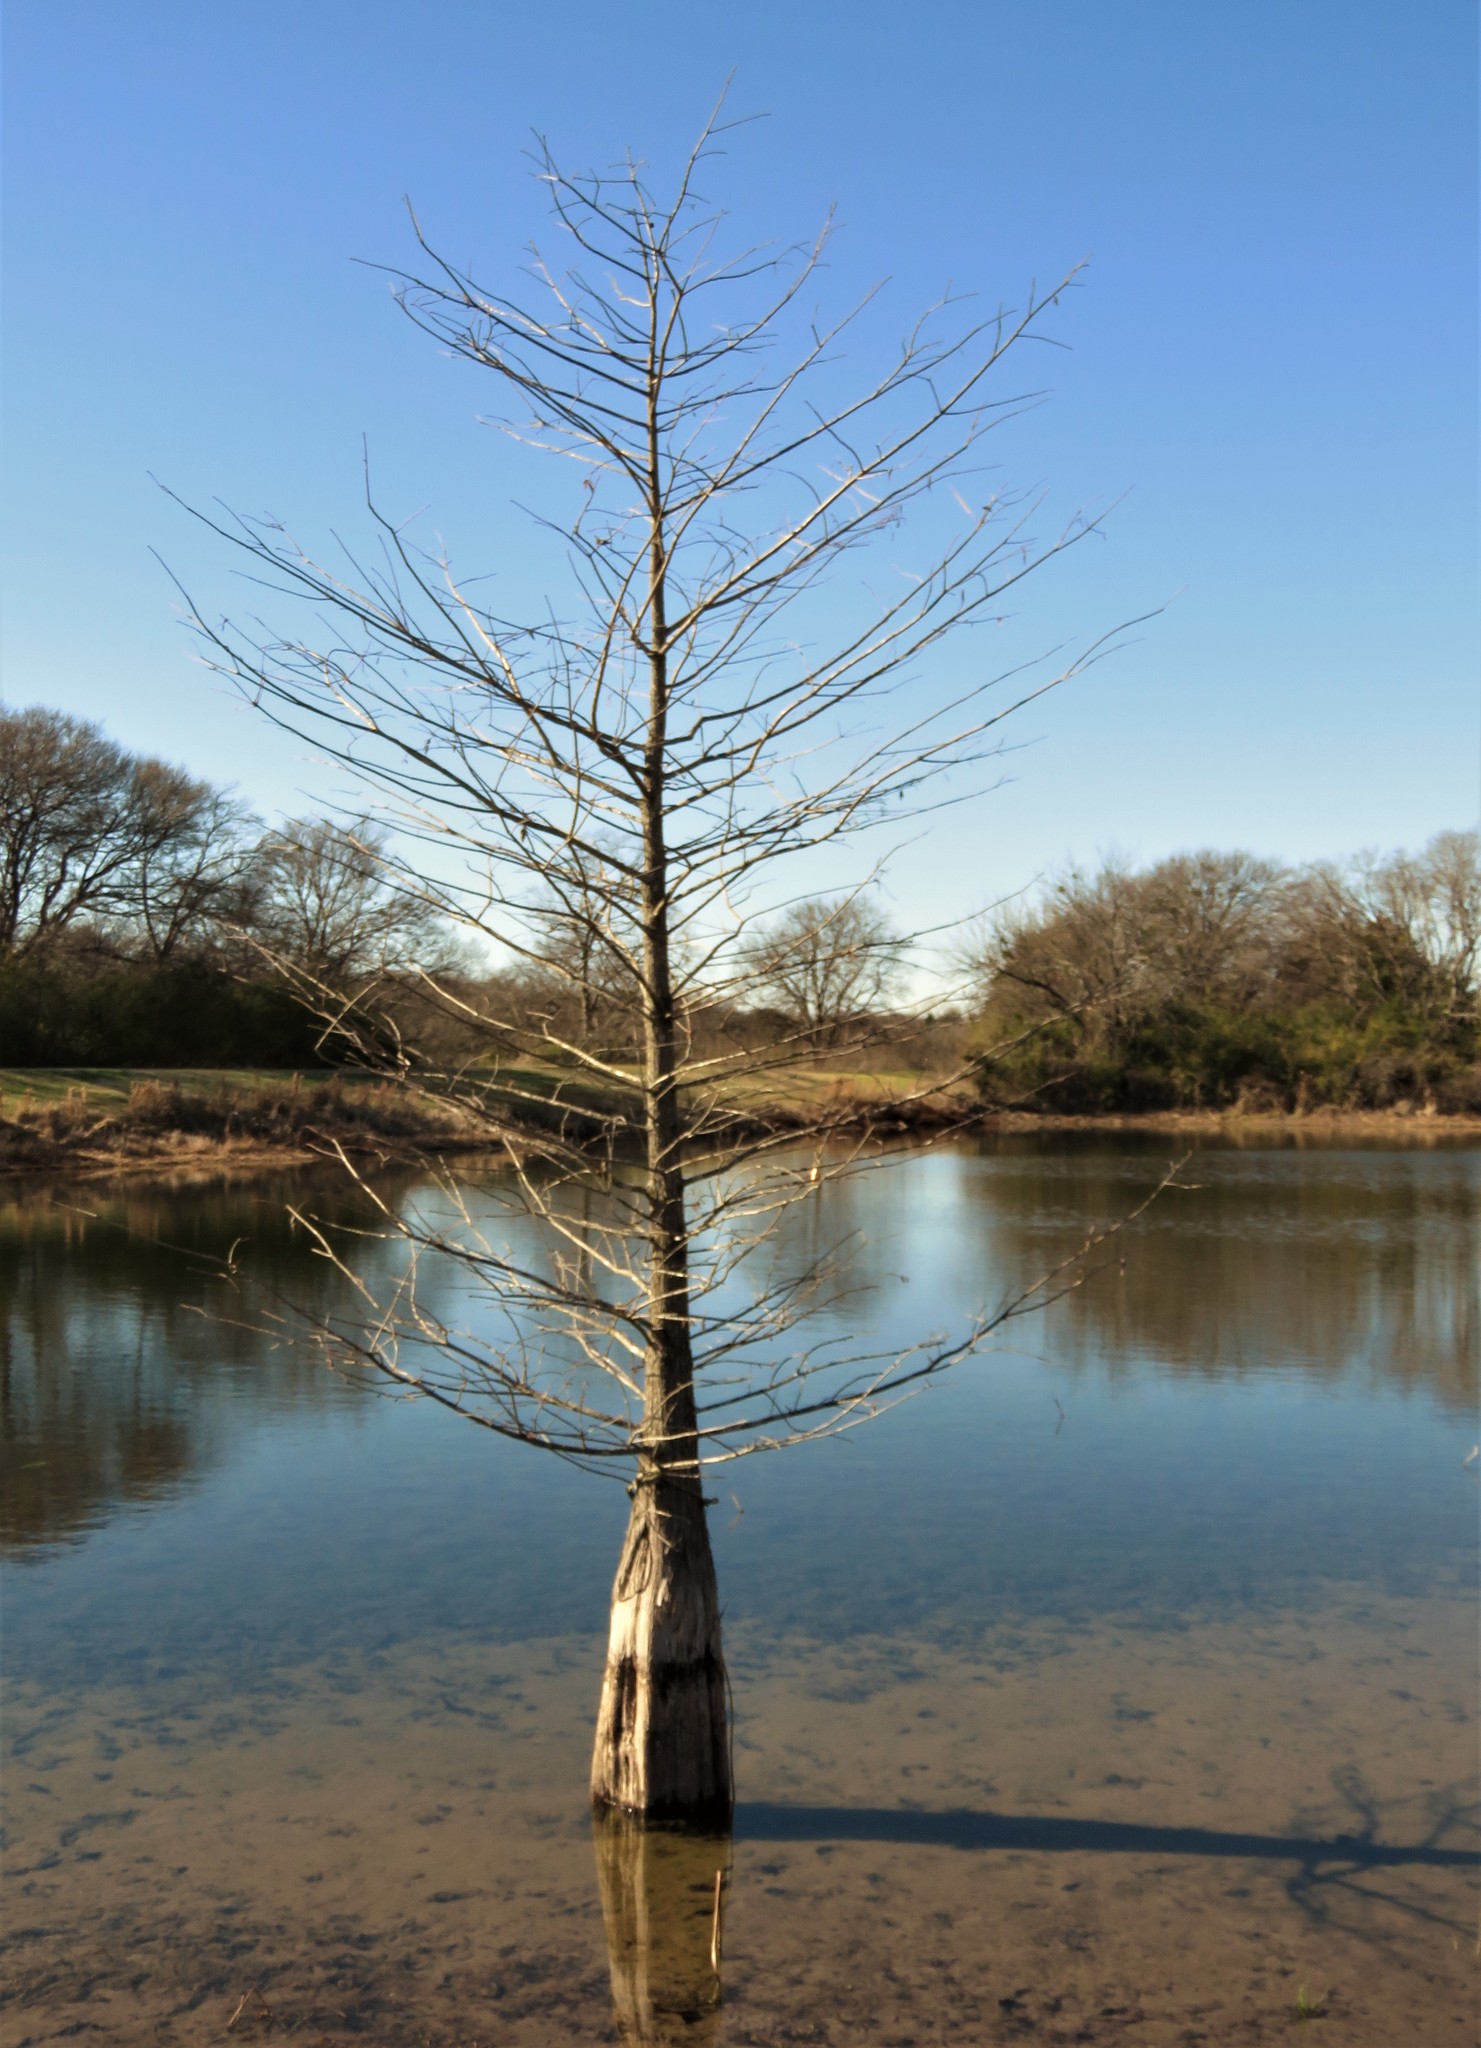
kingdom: Plantae
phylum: Tracheophyta
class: Pinopsida
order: Pinales
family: Cupressaceae
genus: Taxodium
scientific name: Taxodium distichum
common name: Bald cypress
